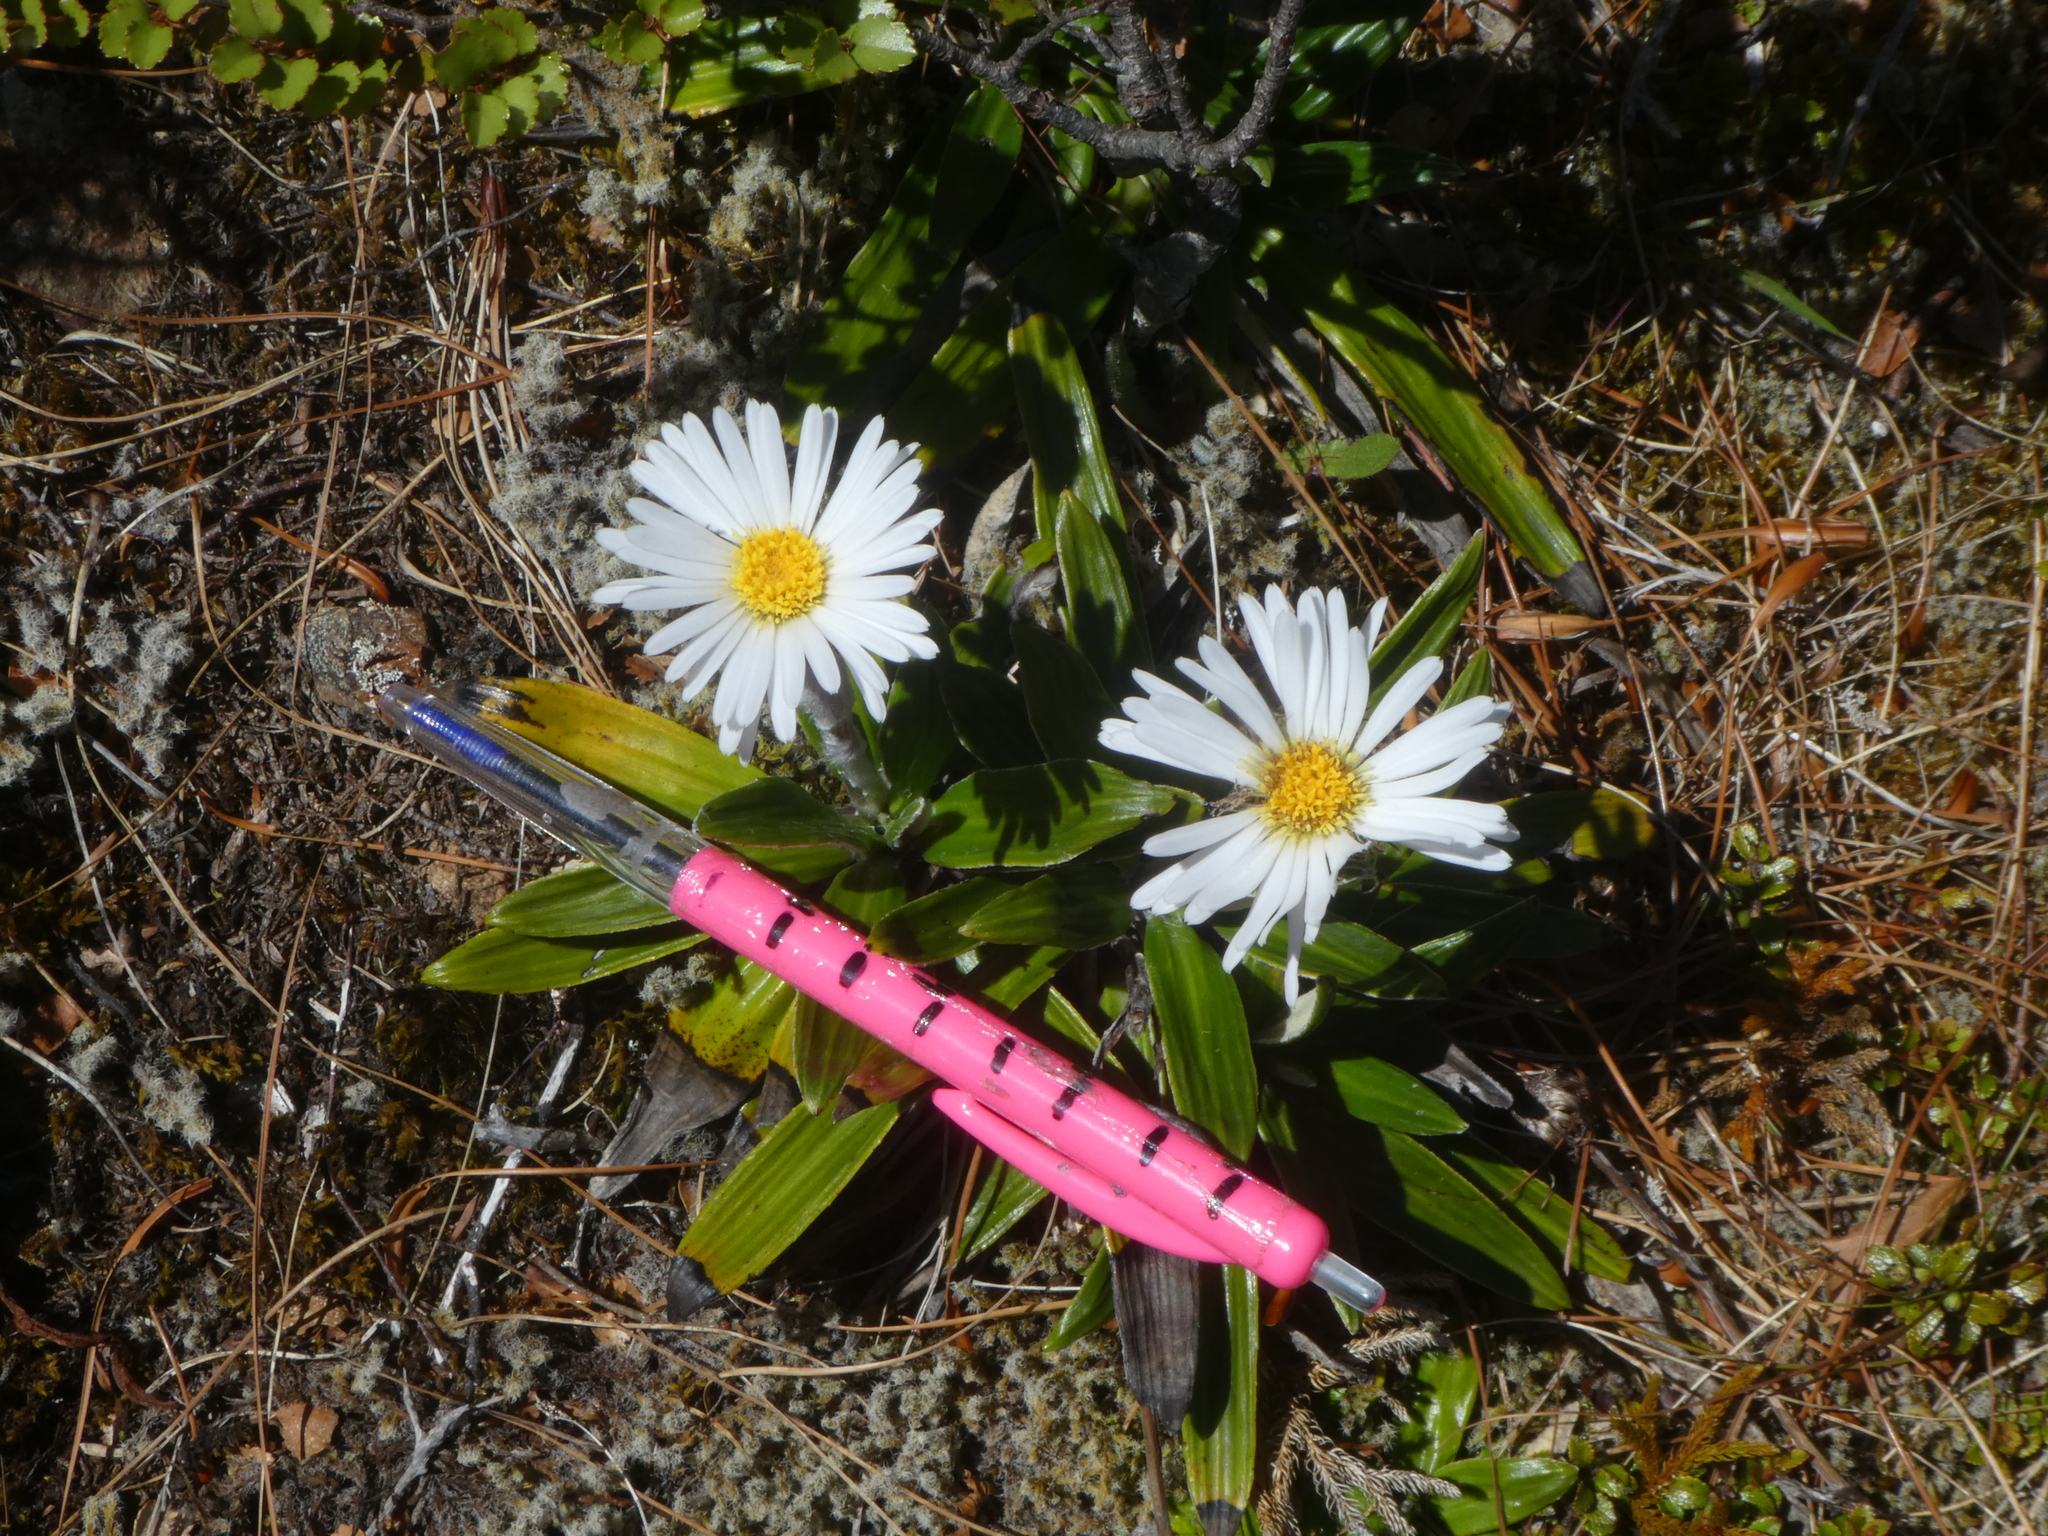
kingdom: Plantae
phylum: Tracheophyta
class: Magnoliopsida
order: Asterales
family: Asteraceae
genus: Celmisia
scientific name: Celmisia spectabilis
